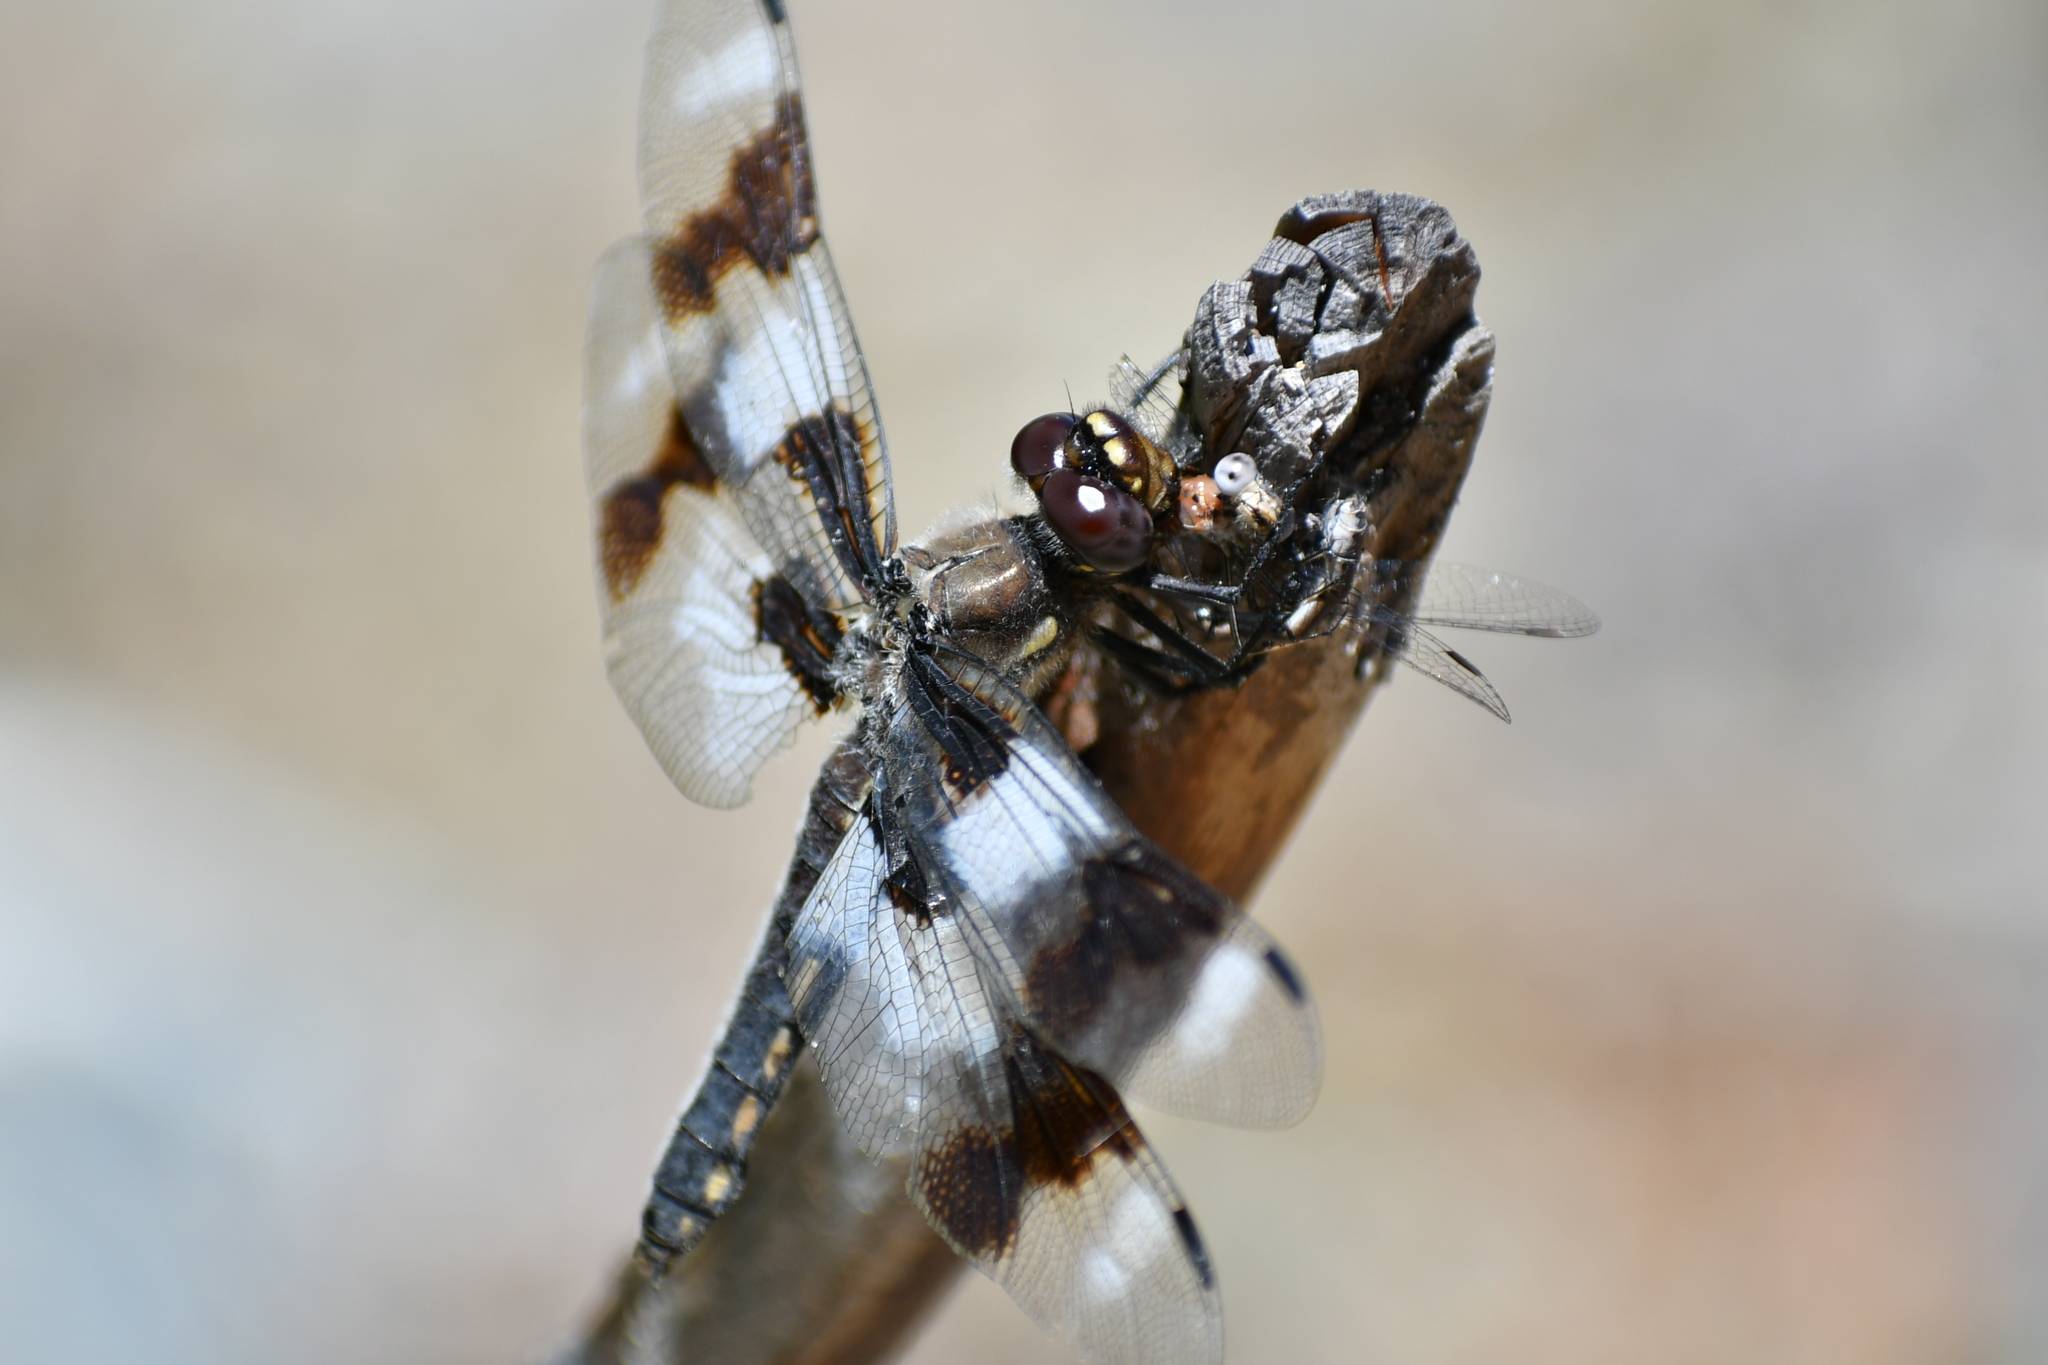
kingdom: Animalia
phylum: Arthropoda
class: Insecta
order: Odonata
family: Libellulidae
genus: Libellula
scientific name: Libellula forensis
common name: Eight-spotted skimmer
